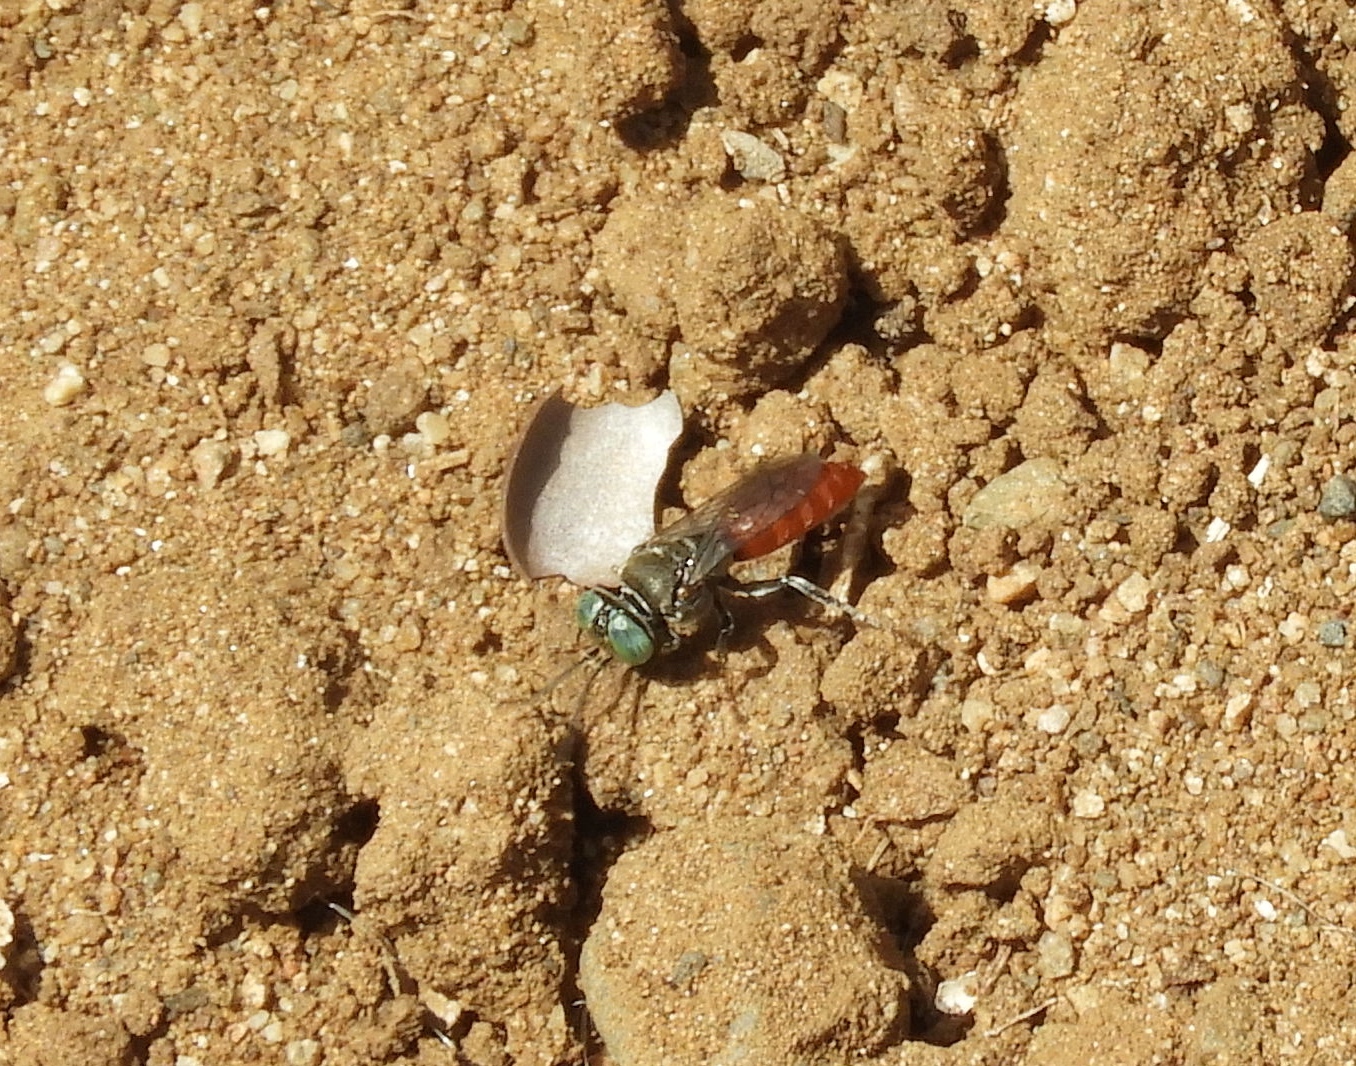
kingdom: Animalia
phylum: Arthropoda
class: Insecta
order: Hymenoptera
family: Crabronidae
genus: Tachysphex
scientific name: Tachysphex
